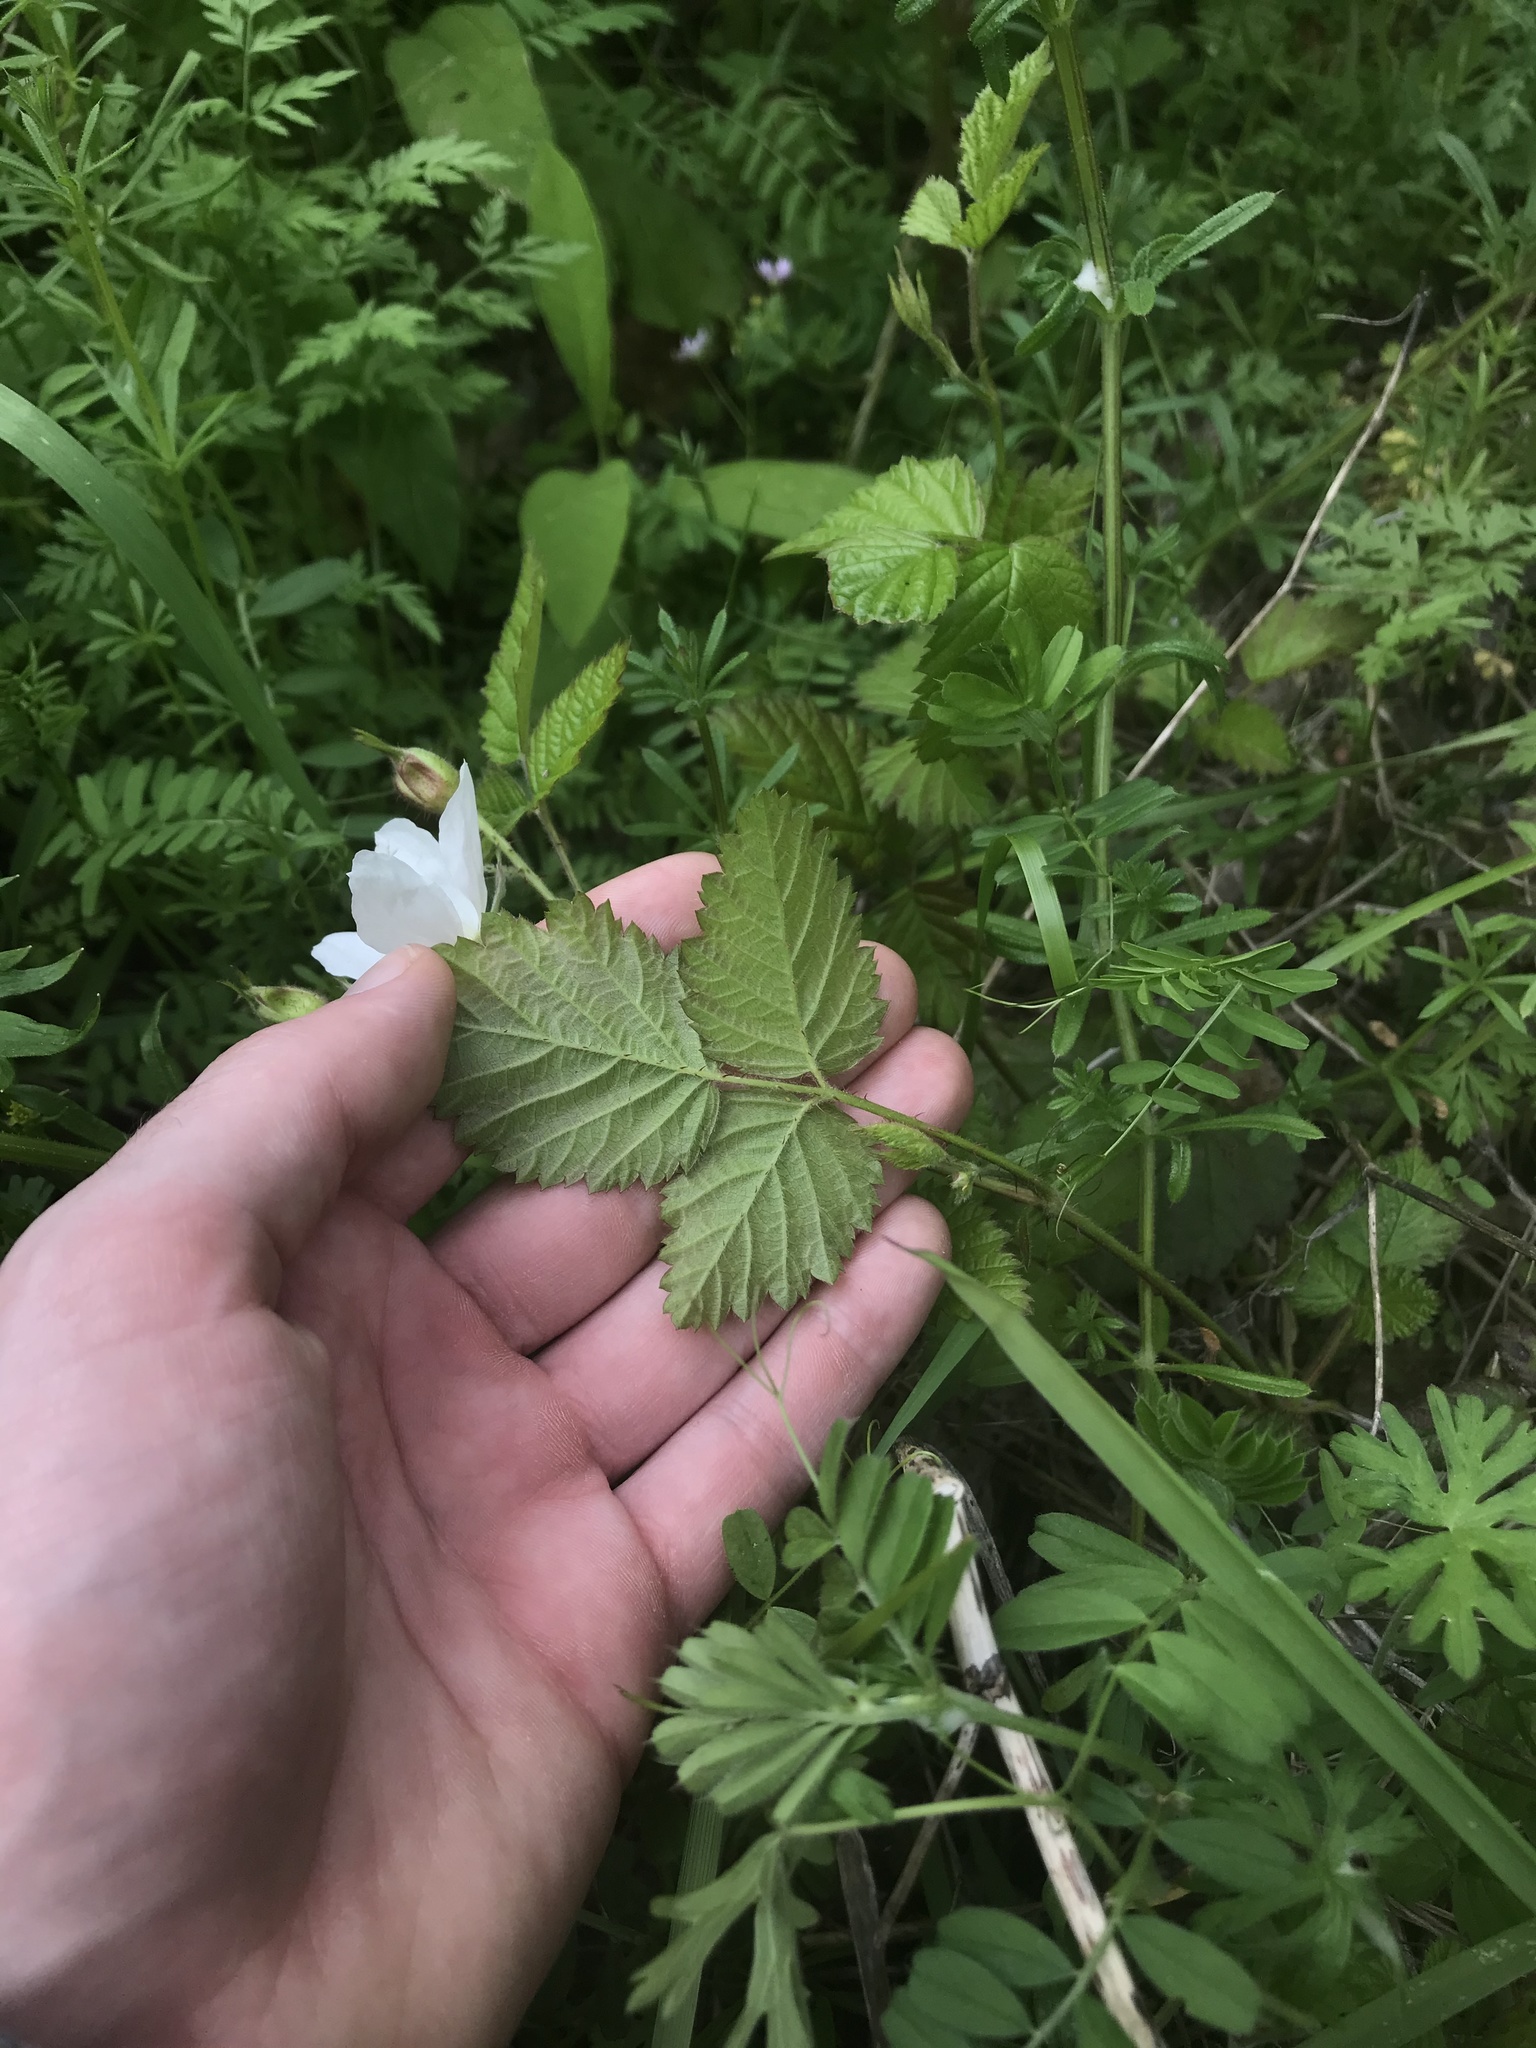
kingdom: Plantae
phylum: Tracheophyta
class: Magnoliopsida
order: Rosales
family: Rosaceae
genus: Rubus
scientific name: Rubus ursinus
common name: Pacific blackberry
